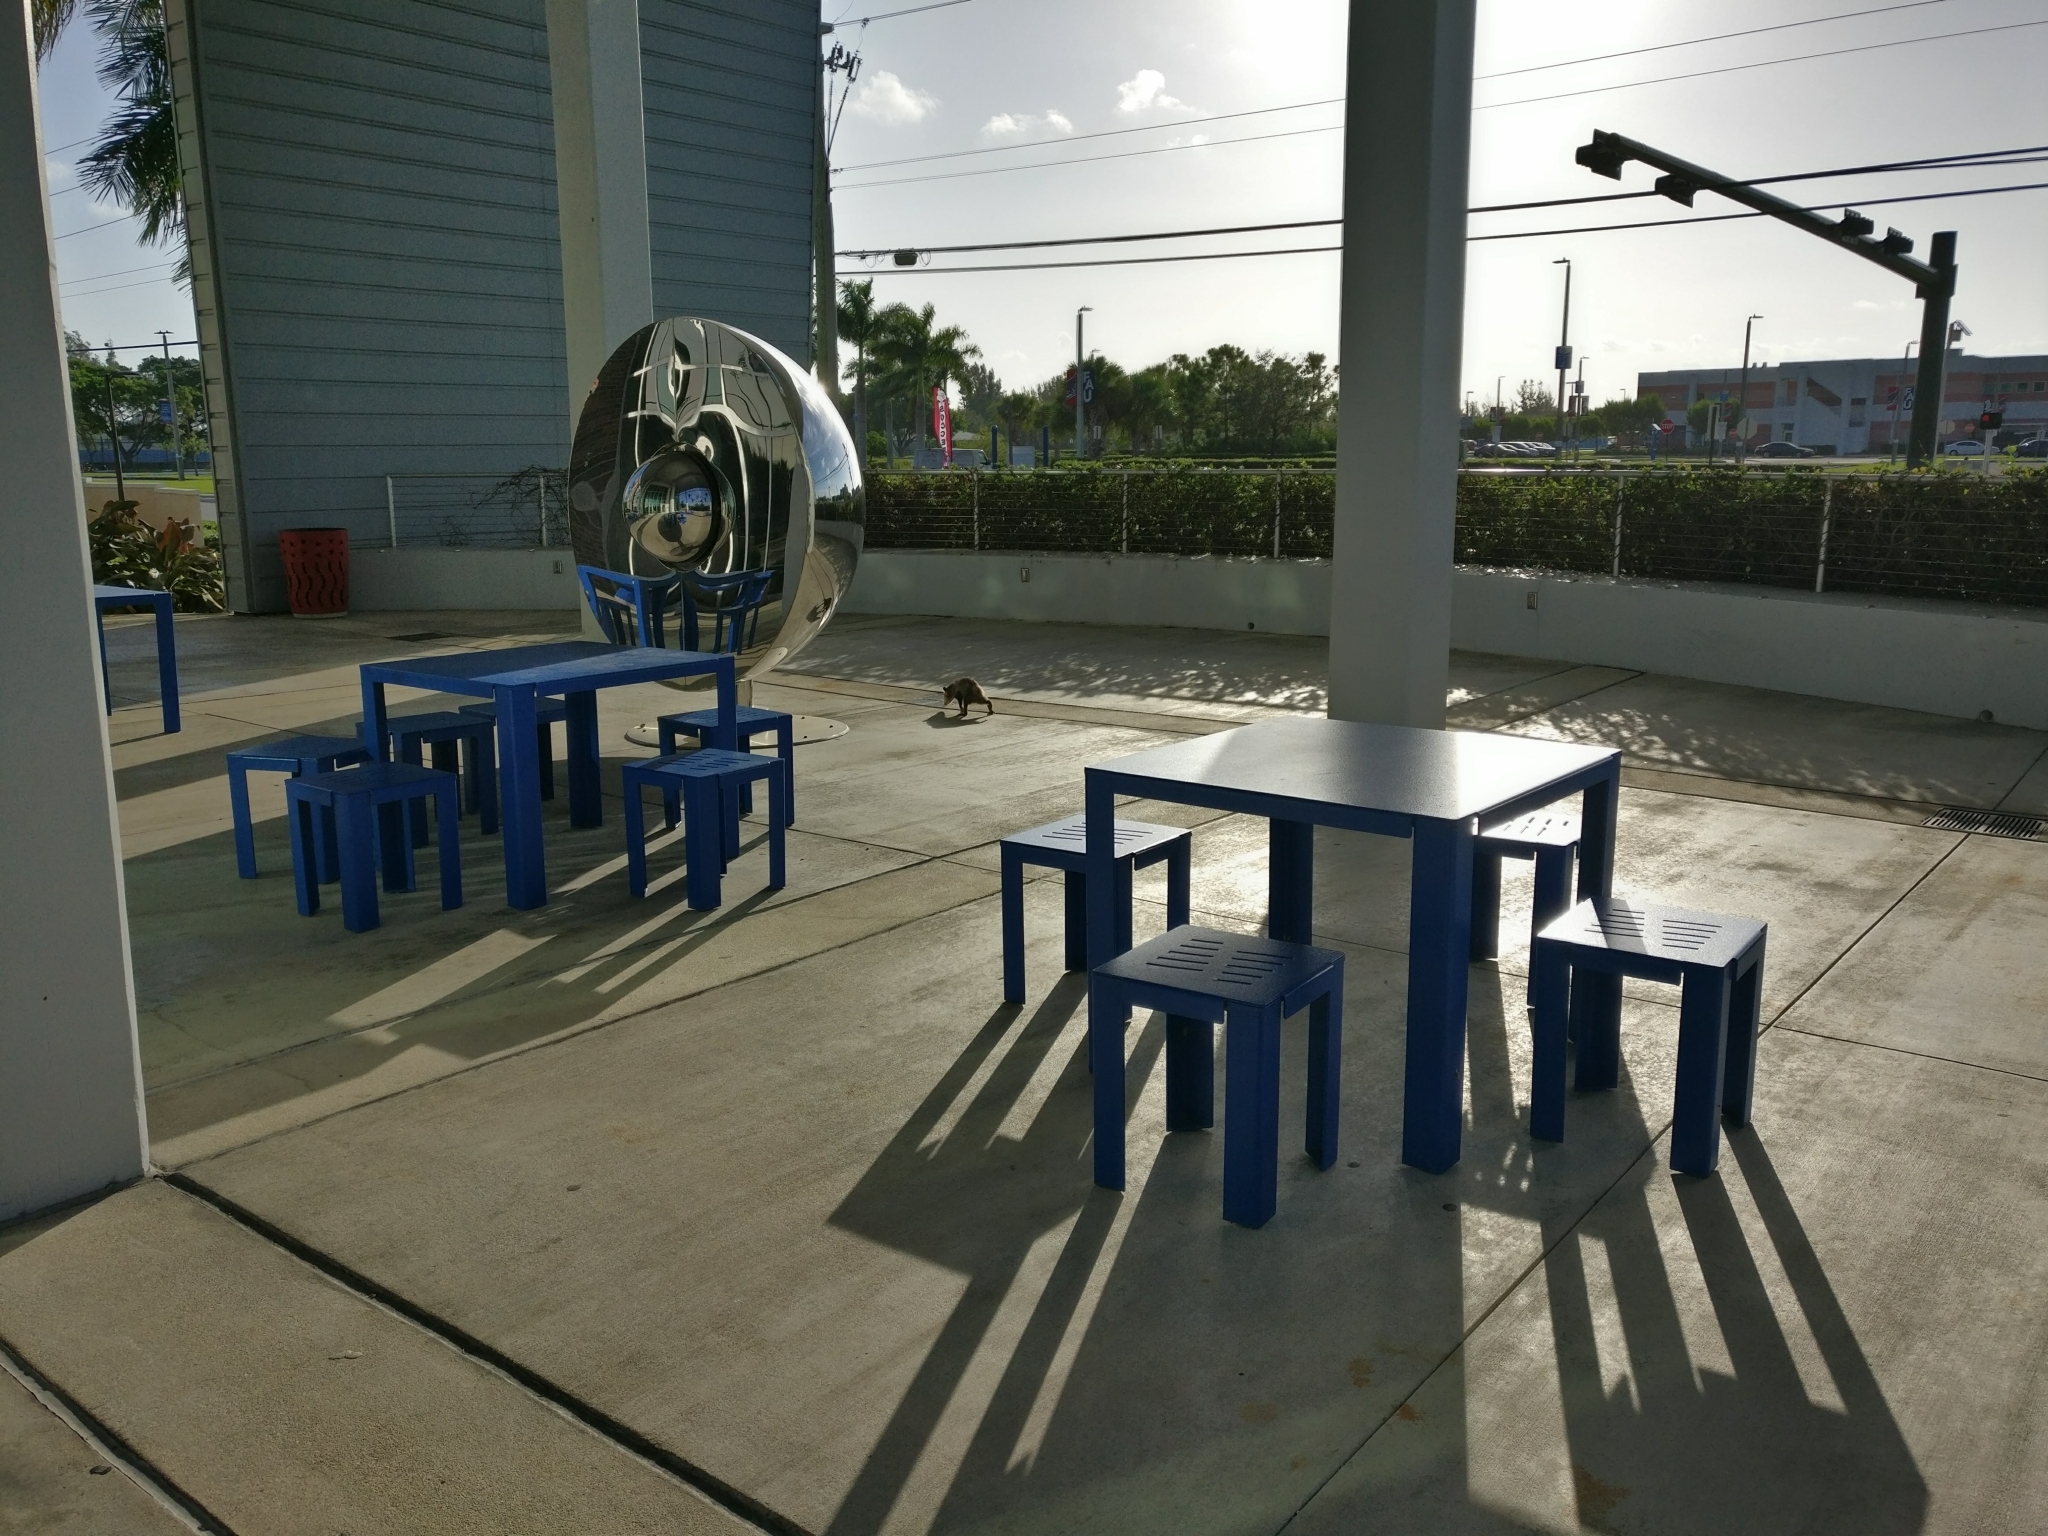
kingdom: Animalia
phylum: Chordata
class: Mammalia
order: Didelphimorphia
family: Didelphidae
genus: Didelphis
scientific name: Didelphis virginiana
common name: Virginia opossum
